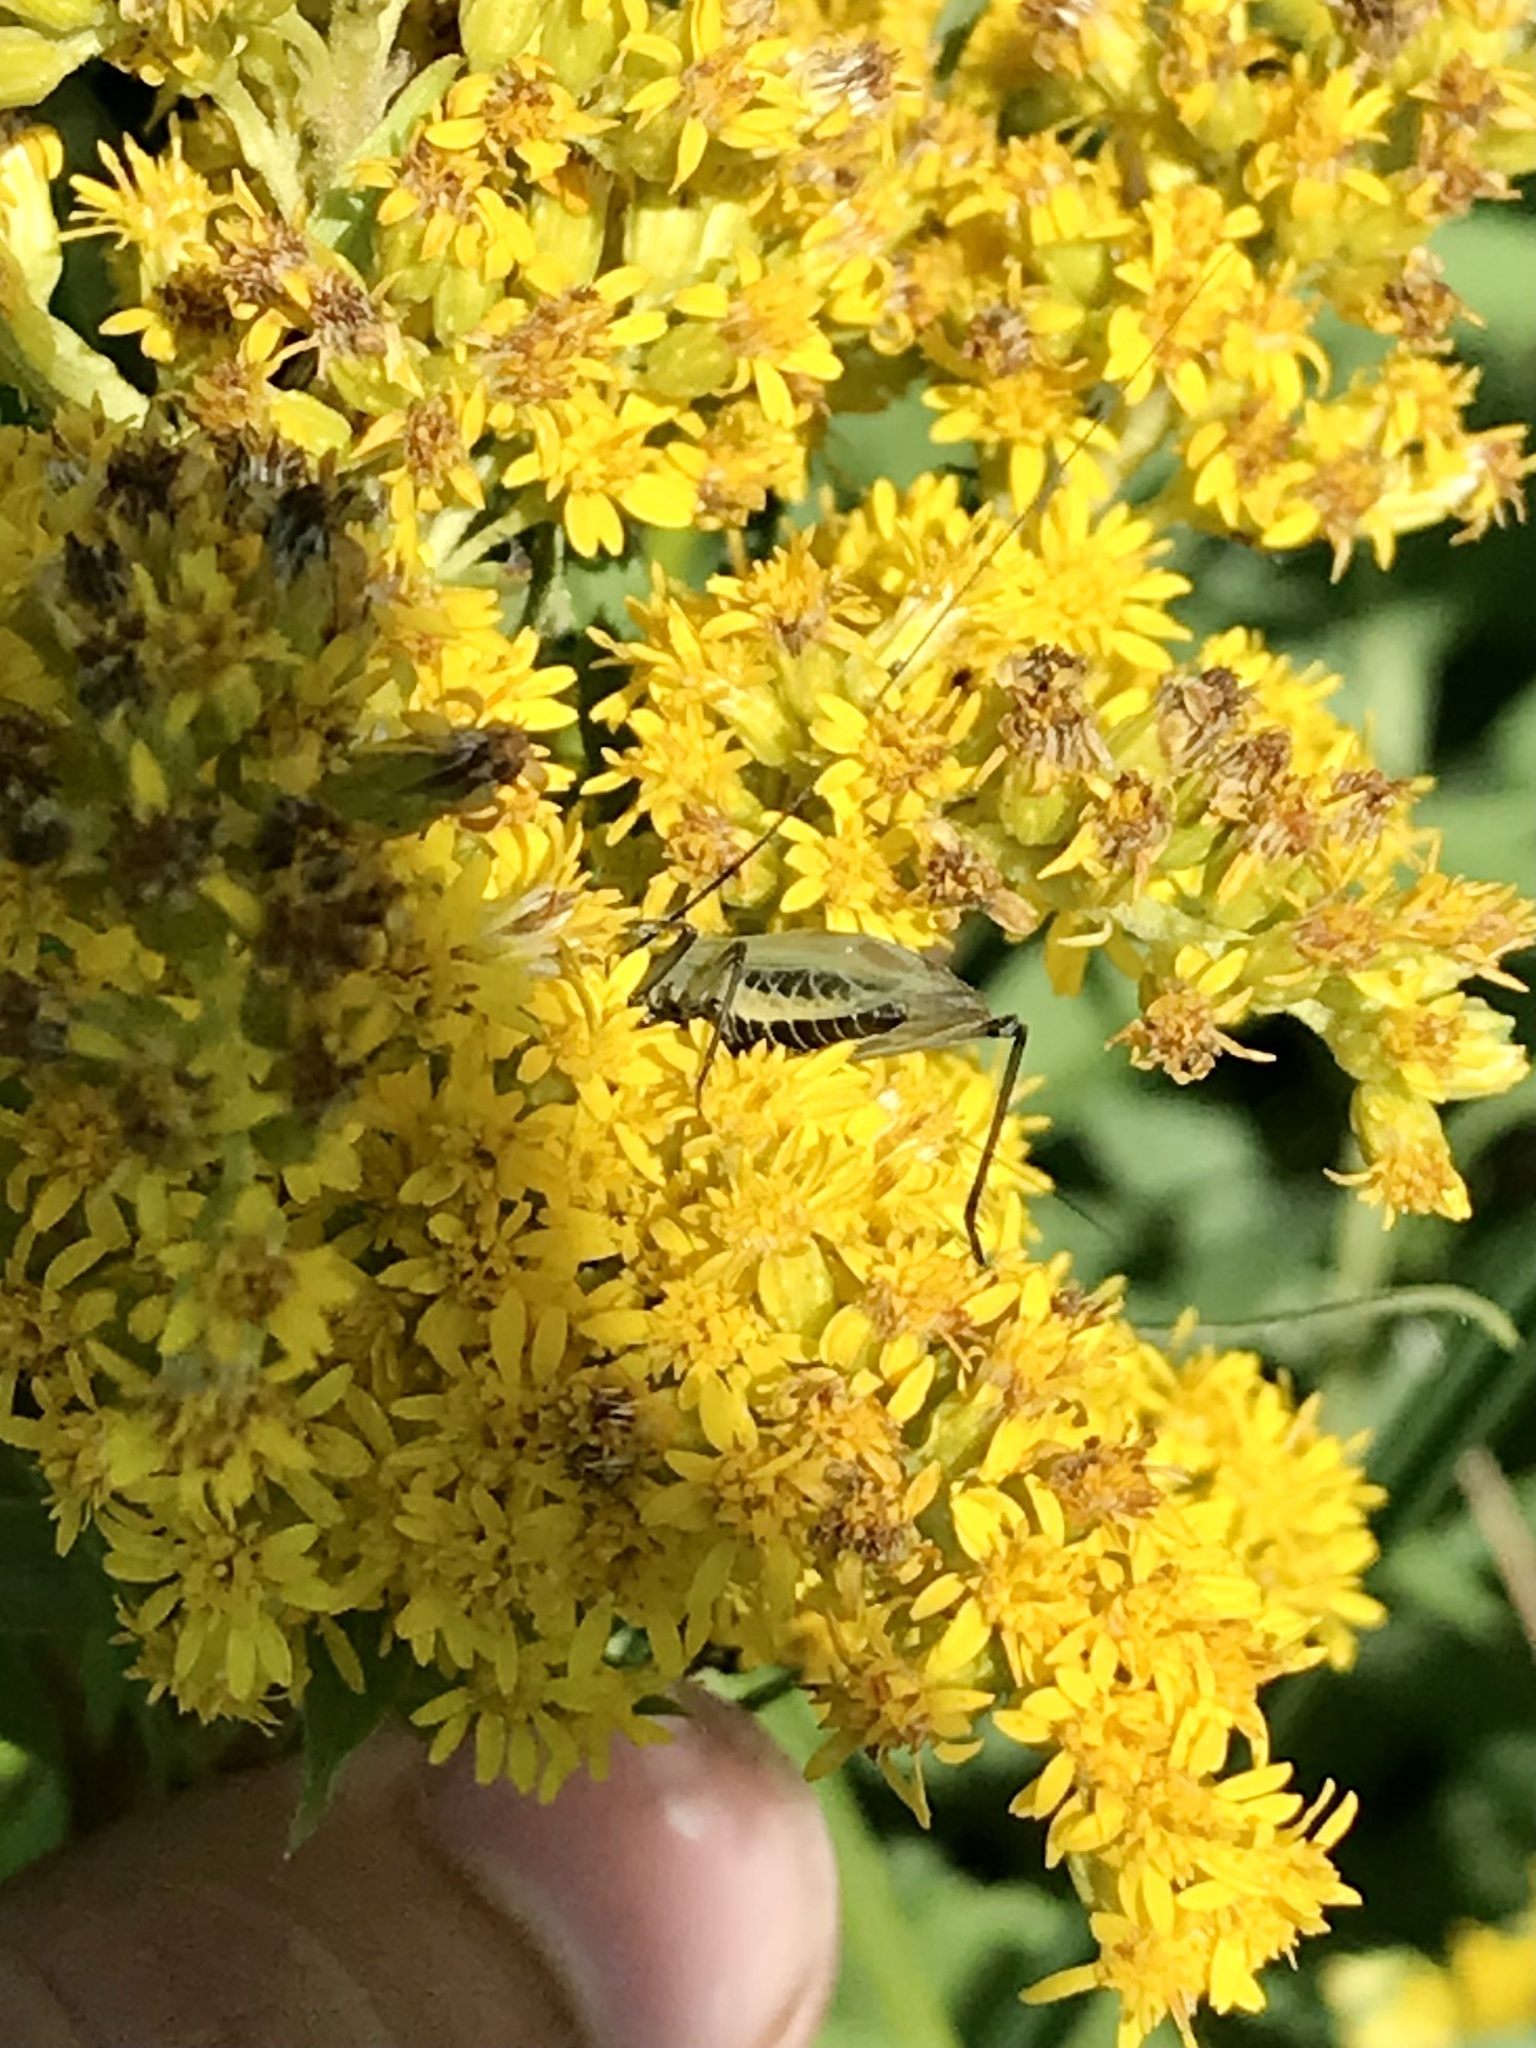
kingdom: Animalia
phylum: Arthropoda
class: Insecta
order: Orthoptera
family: Gryllidae
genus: Oecanthus
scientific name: Oecanthus forbesi
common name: Forbes’s tree cricket
